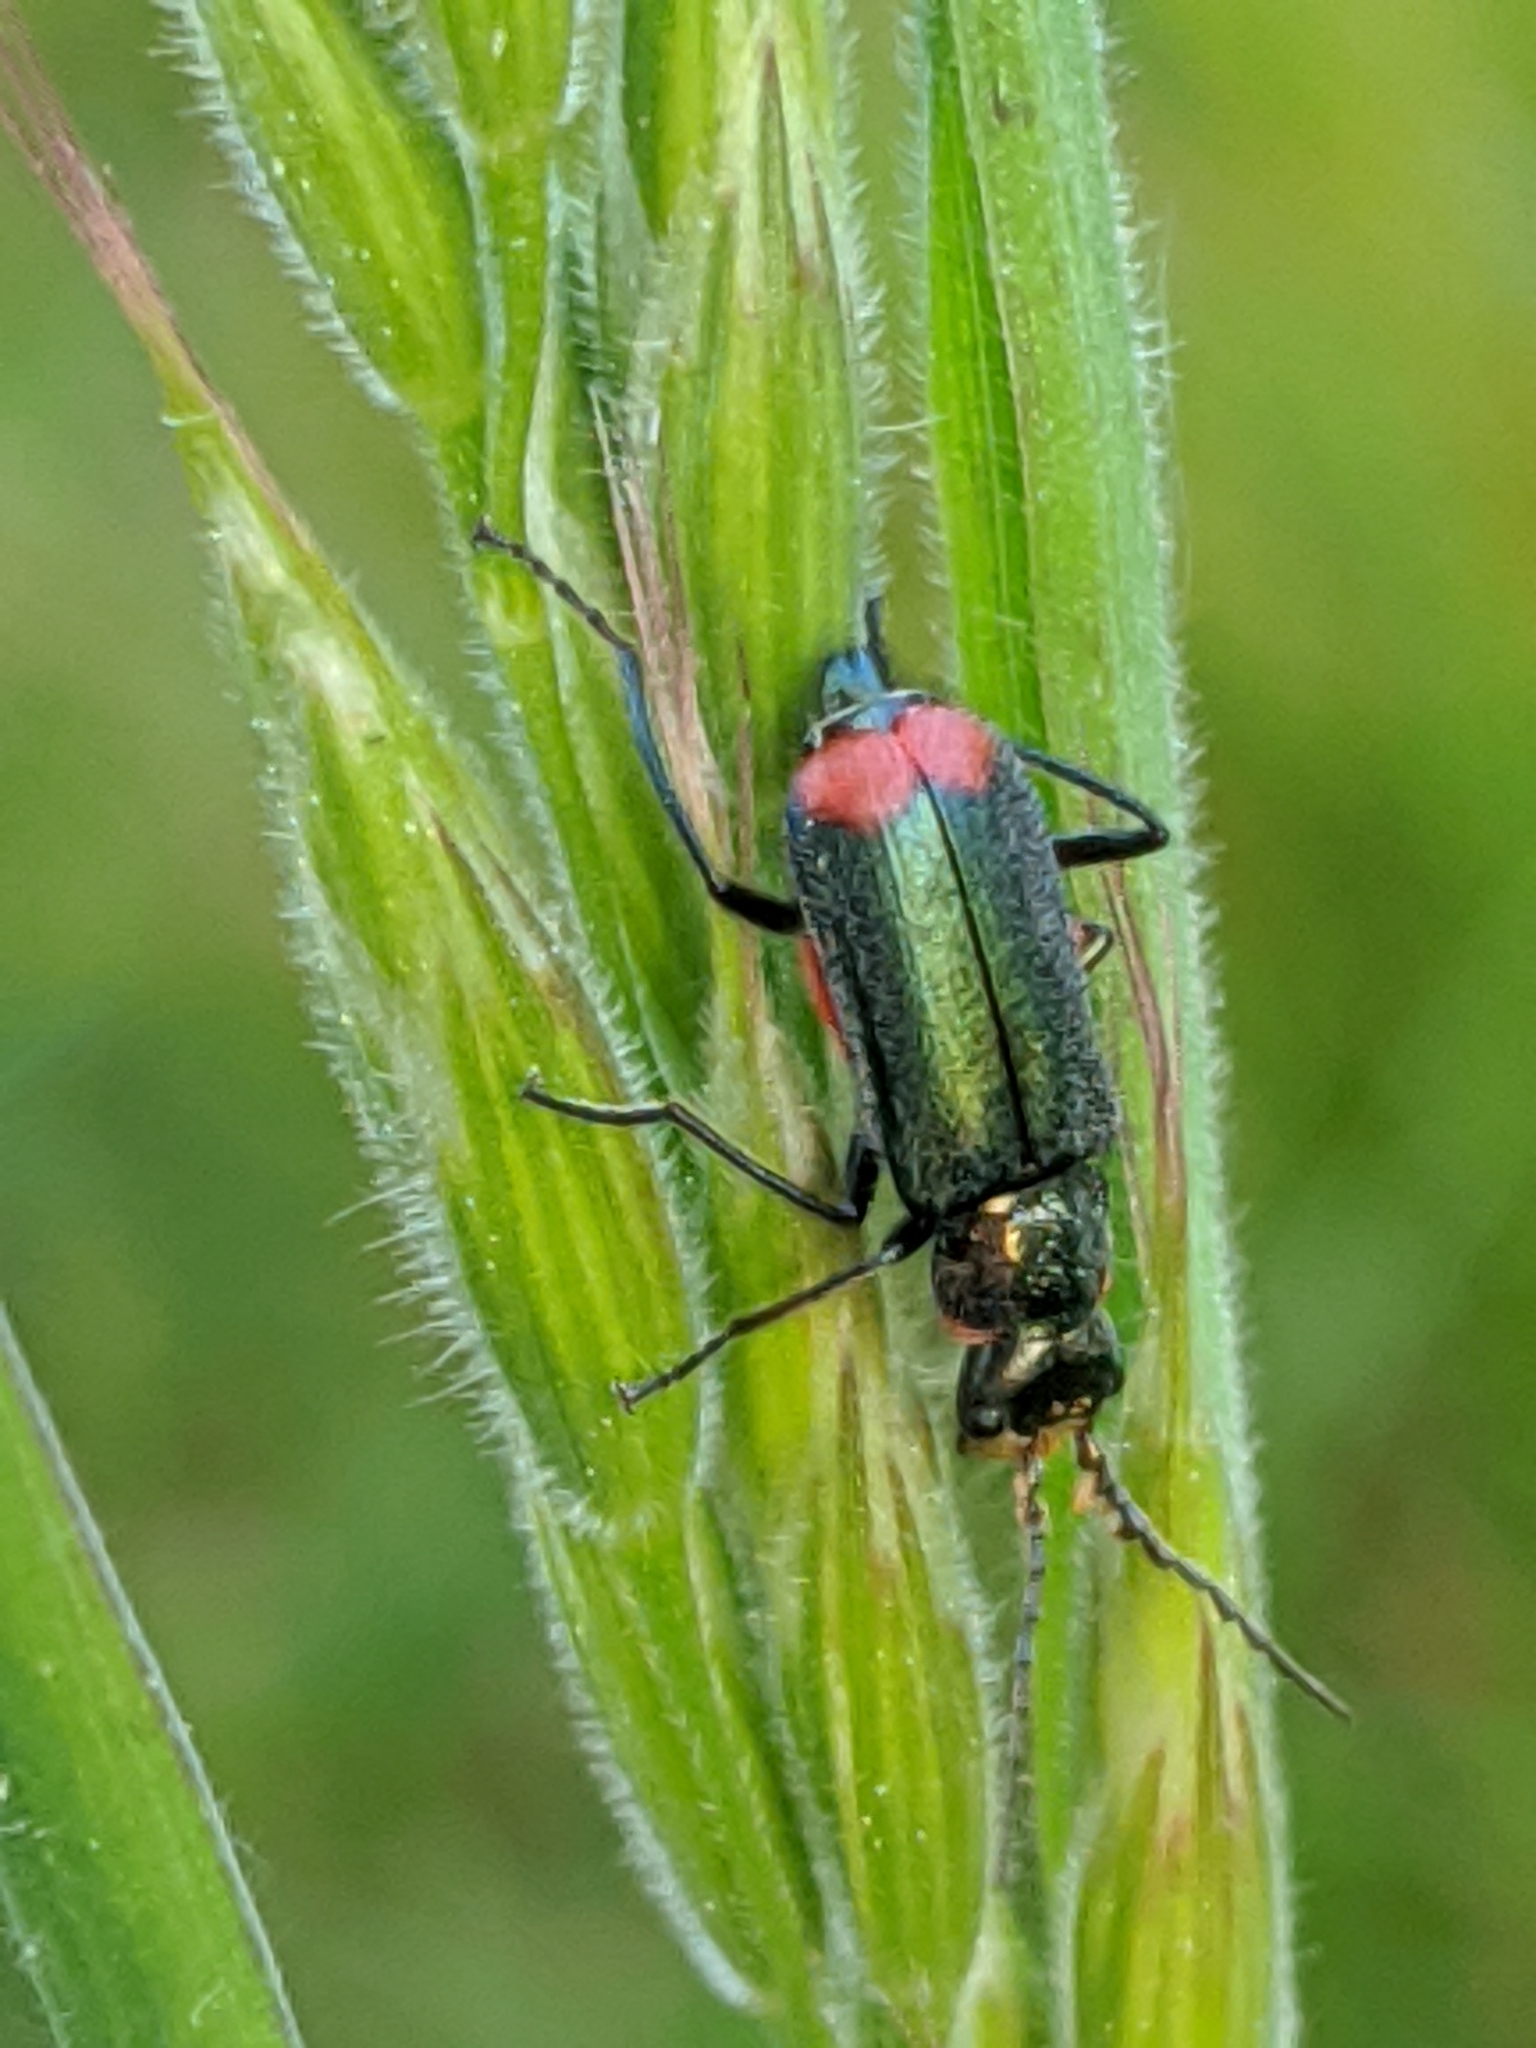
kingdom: Animalia
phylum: Arthropoda
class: Insecta
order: Coleoptera
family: Melyridae
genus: Malachius
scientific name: Malachius bipustulatus
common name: Malachite beetle
